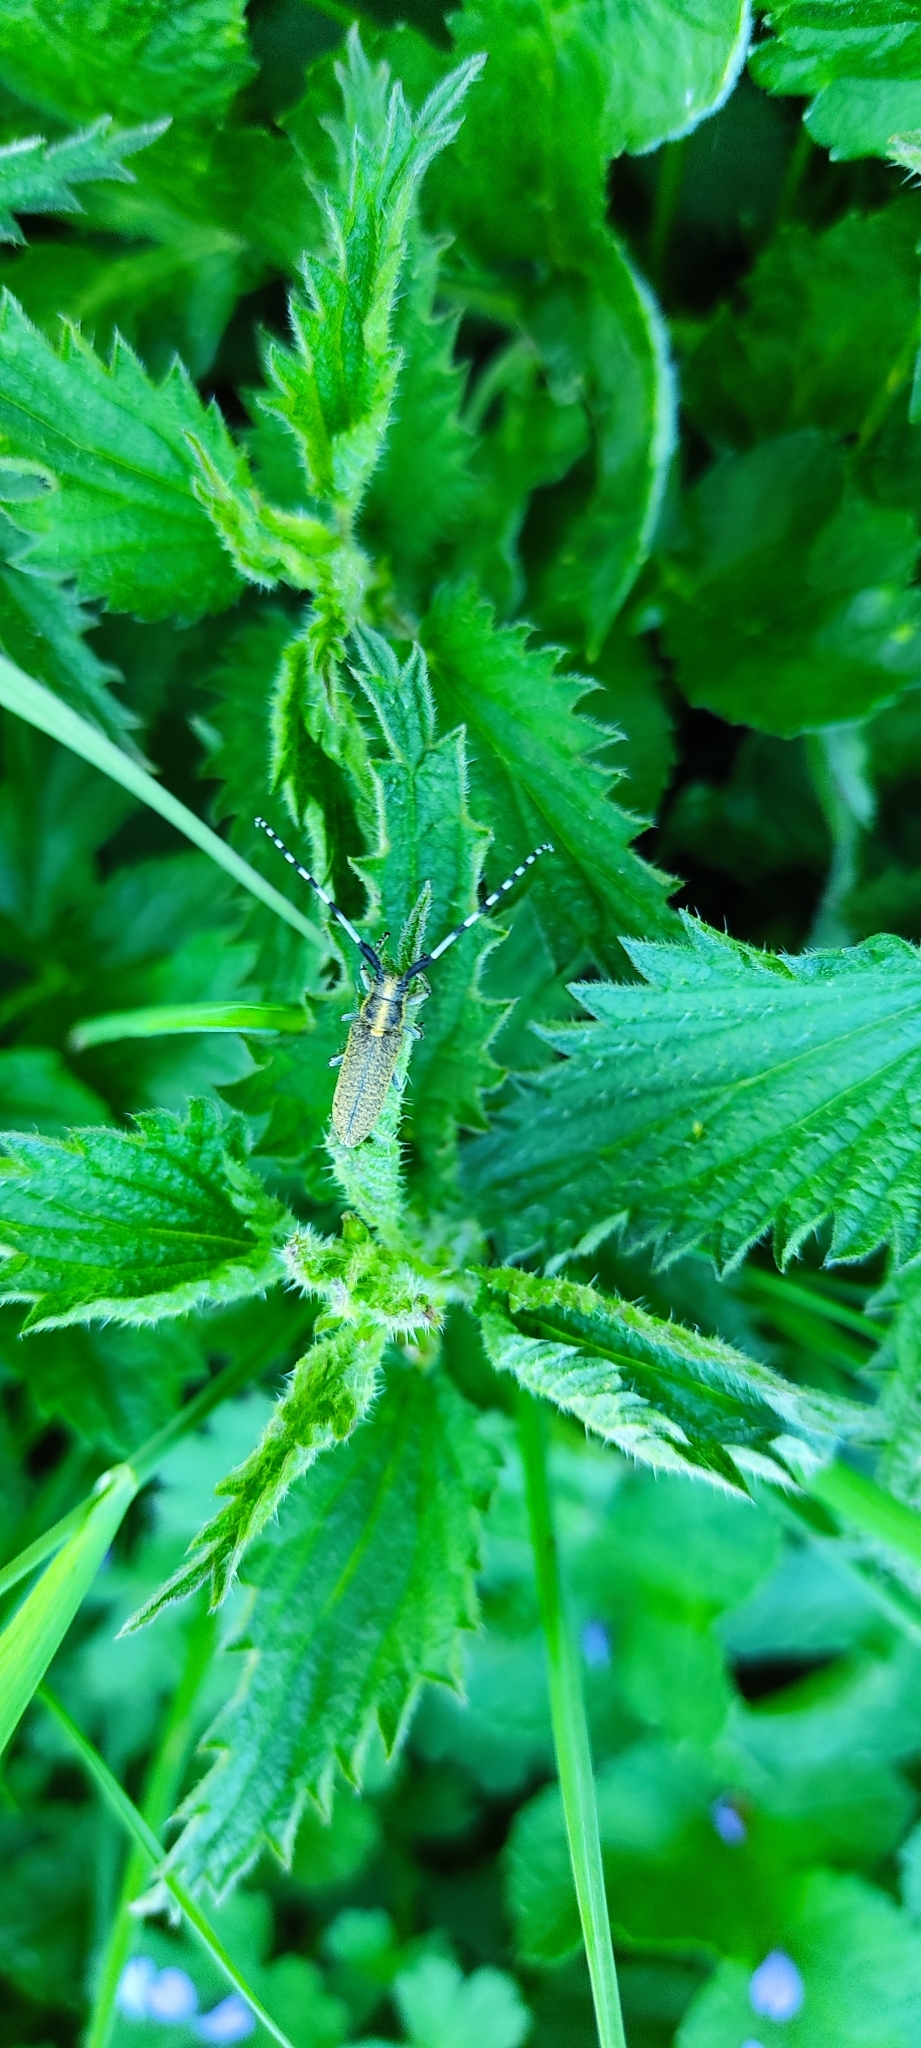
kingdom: Animalia
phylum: Arthropoda
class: Insecta
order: Coleoptera
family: Cerambycidae
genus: Agapanthia
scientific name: Agapanthia villosoviridescens
